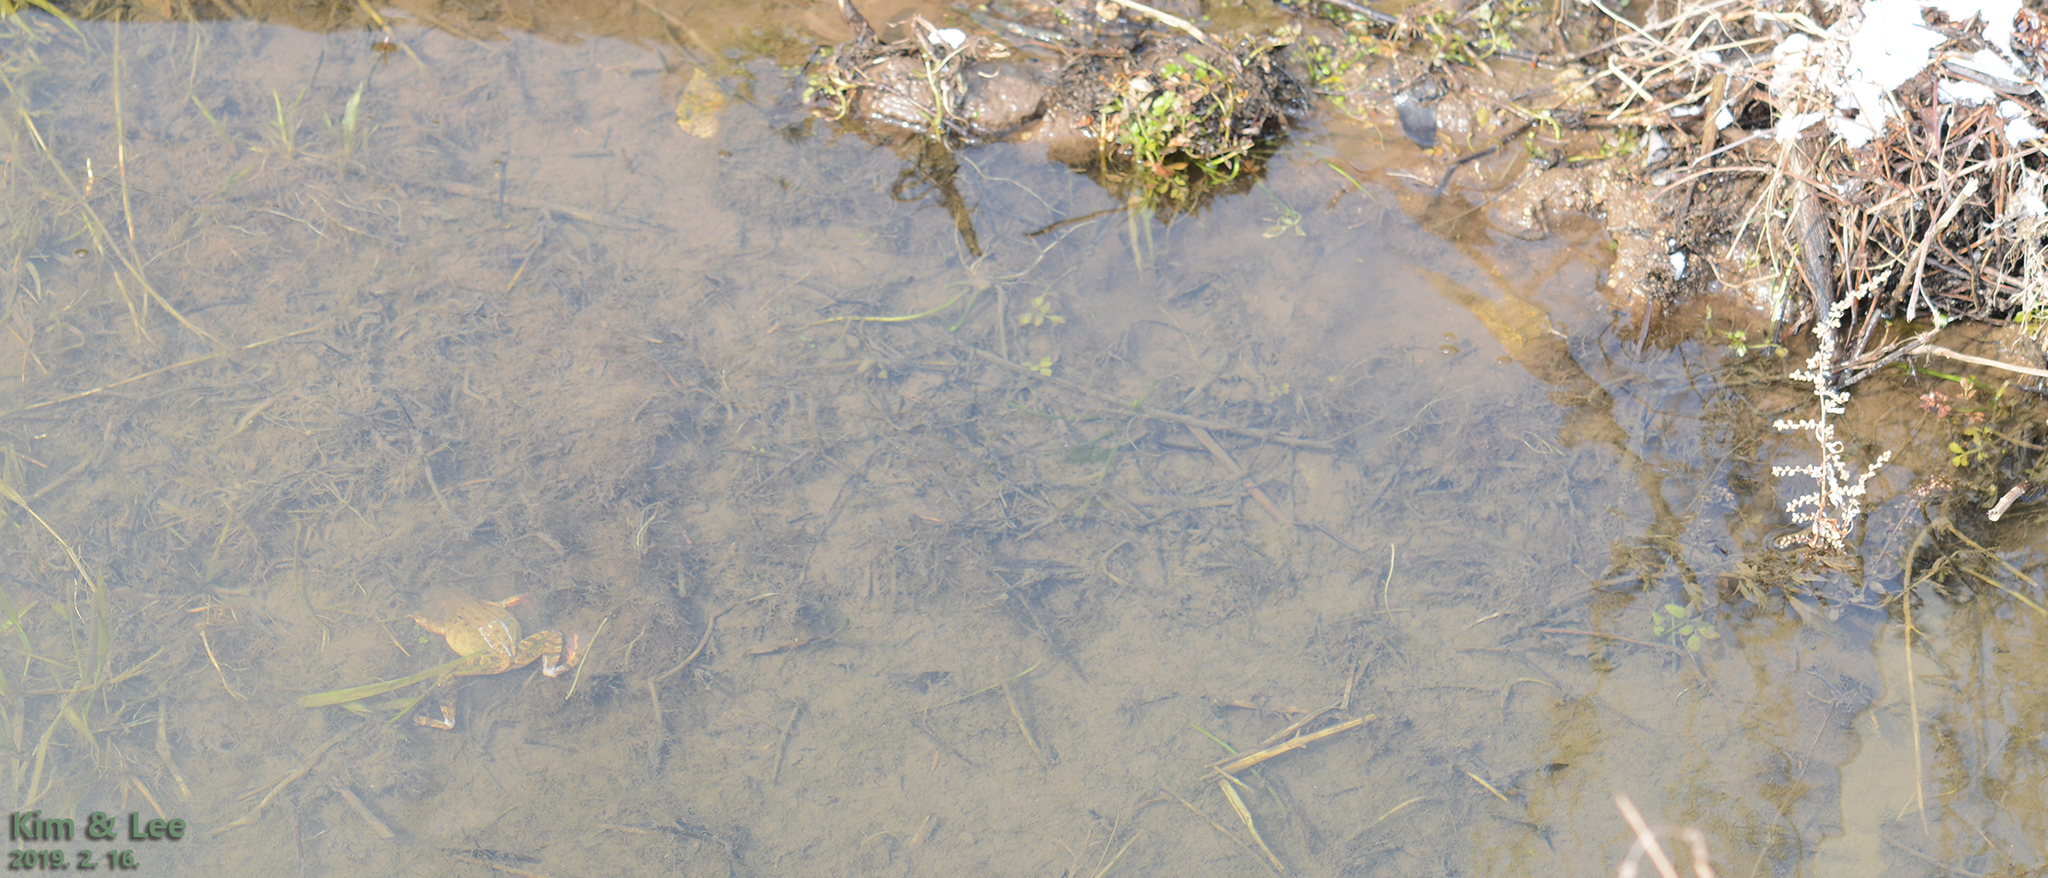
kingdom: Animalia
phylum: Chordata
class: Amphibia
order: Anura
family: Ranidae
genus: Rana
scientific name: Rana uenoi
